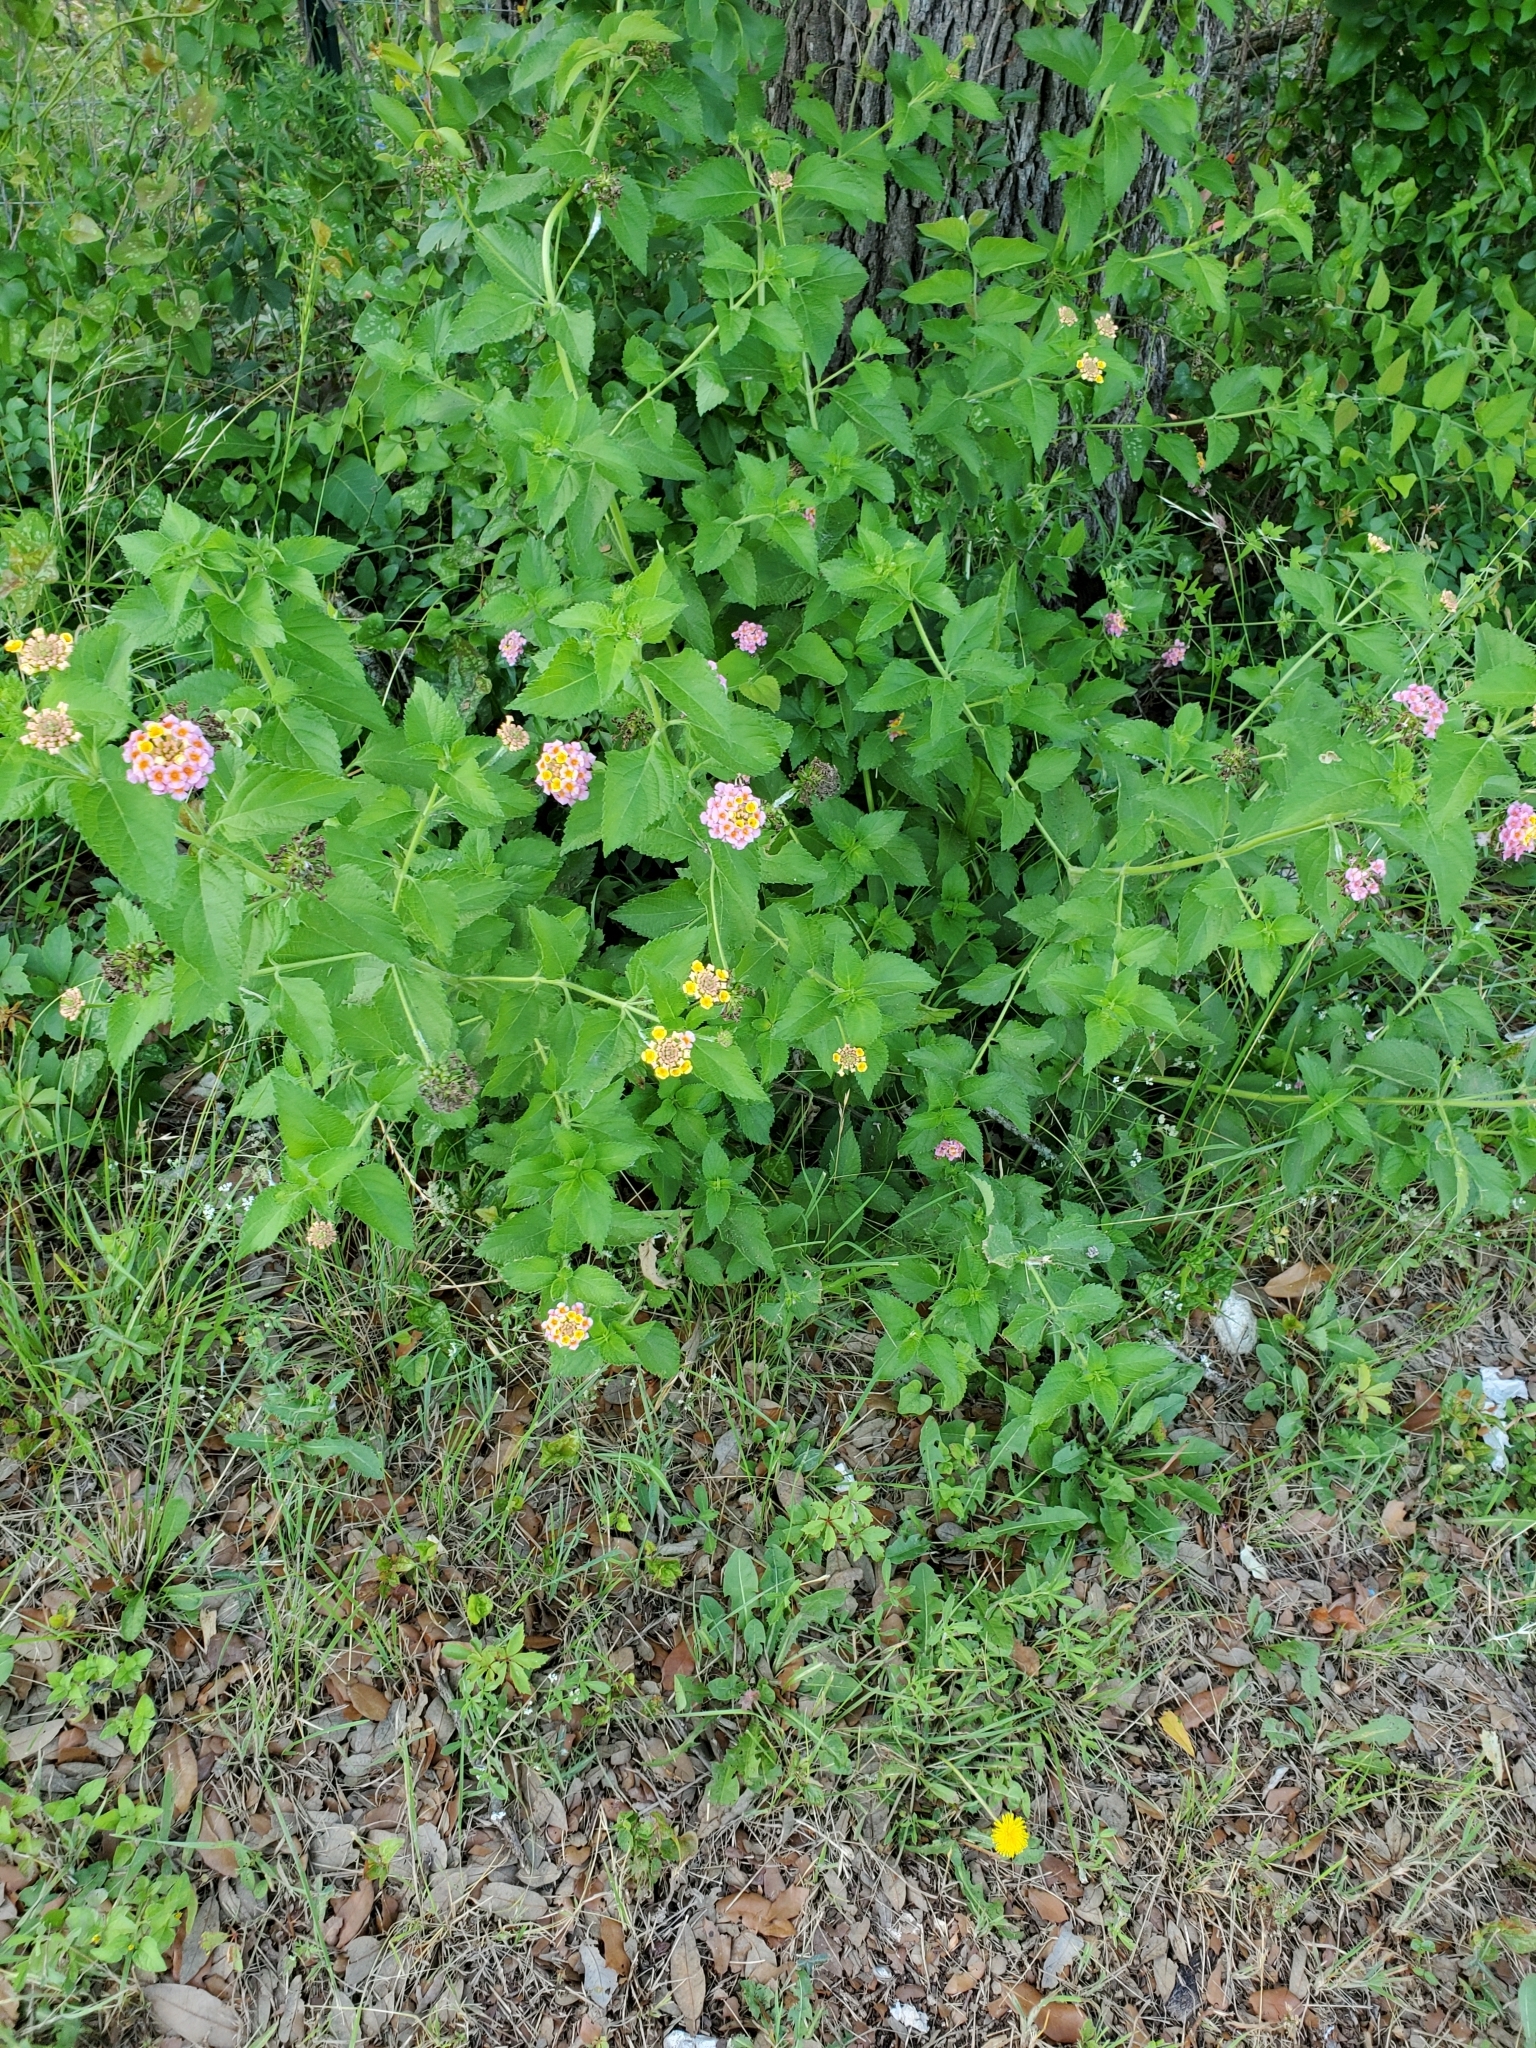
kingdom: Plantae
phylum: Tracheophyta
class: Magnoliopsida
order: Lamiales
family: Verbenaceae
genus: Lantana
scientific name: Lantana strigocamara
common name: Lantana
